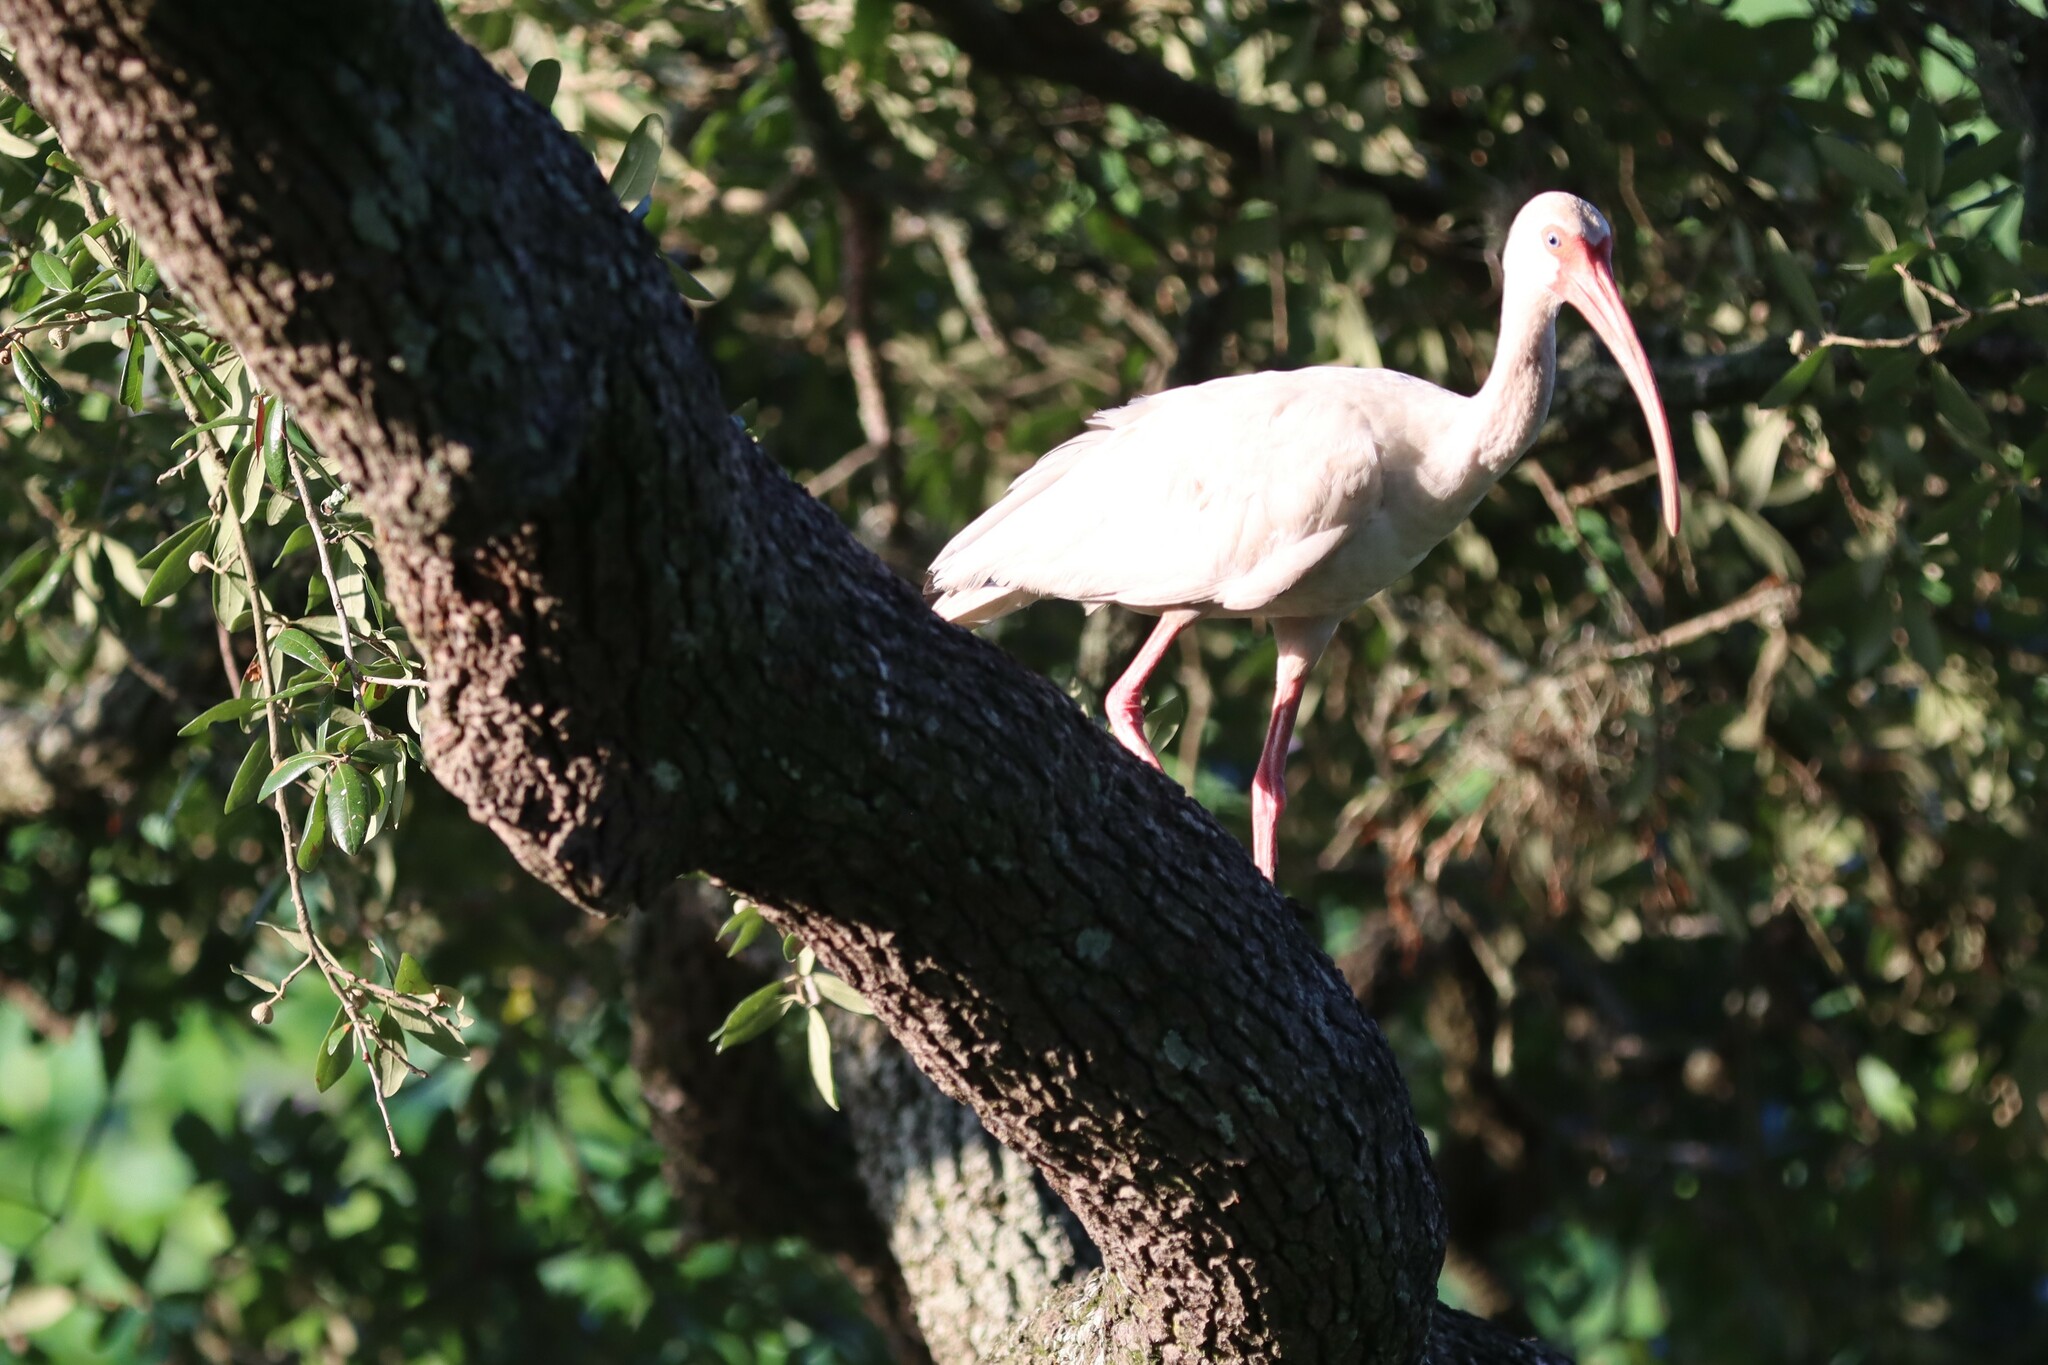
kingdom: Animalia
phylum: Chordata
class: Aves
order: Pelecaniformes
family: Threskiornithidae
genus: Eudocimus
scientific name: Eudocimus albus
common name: White ibis
